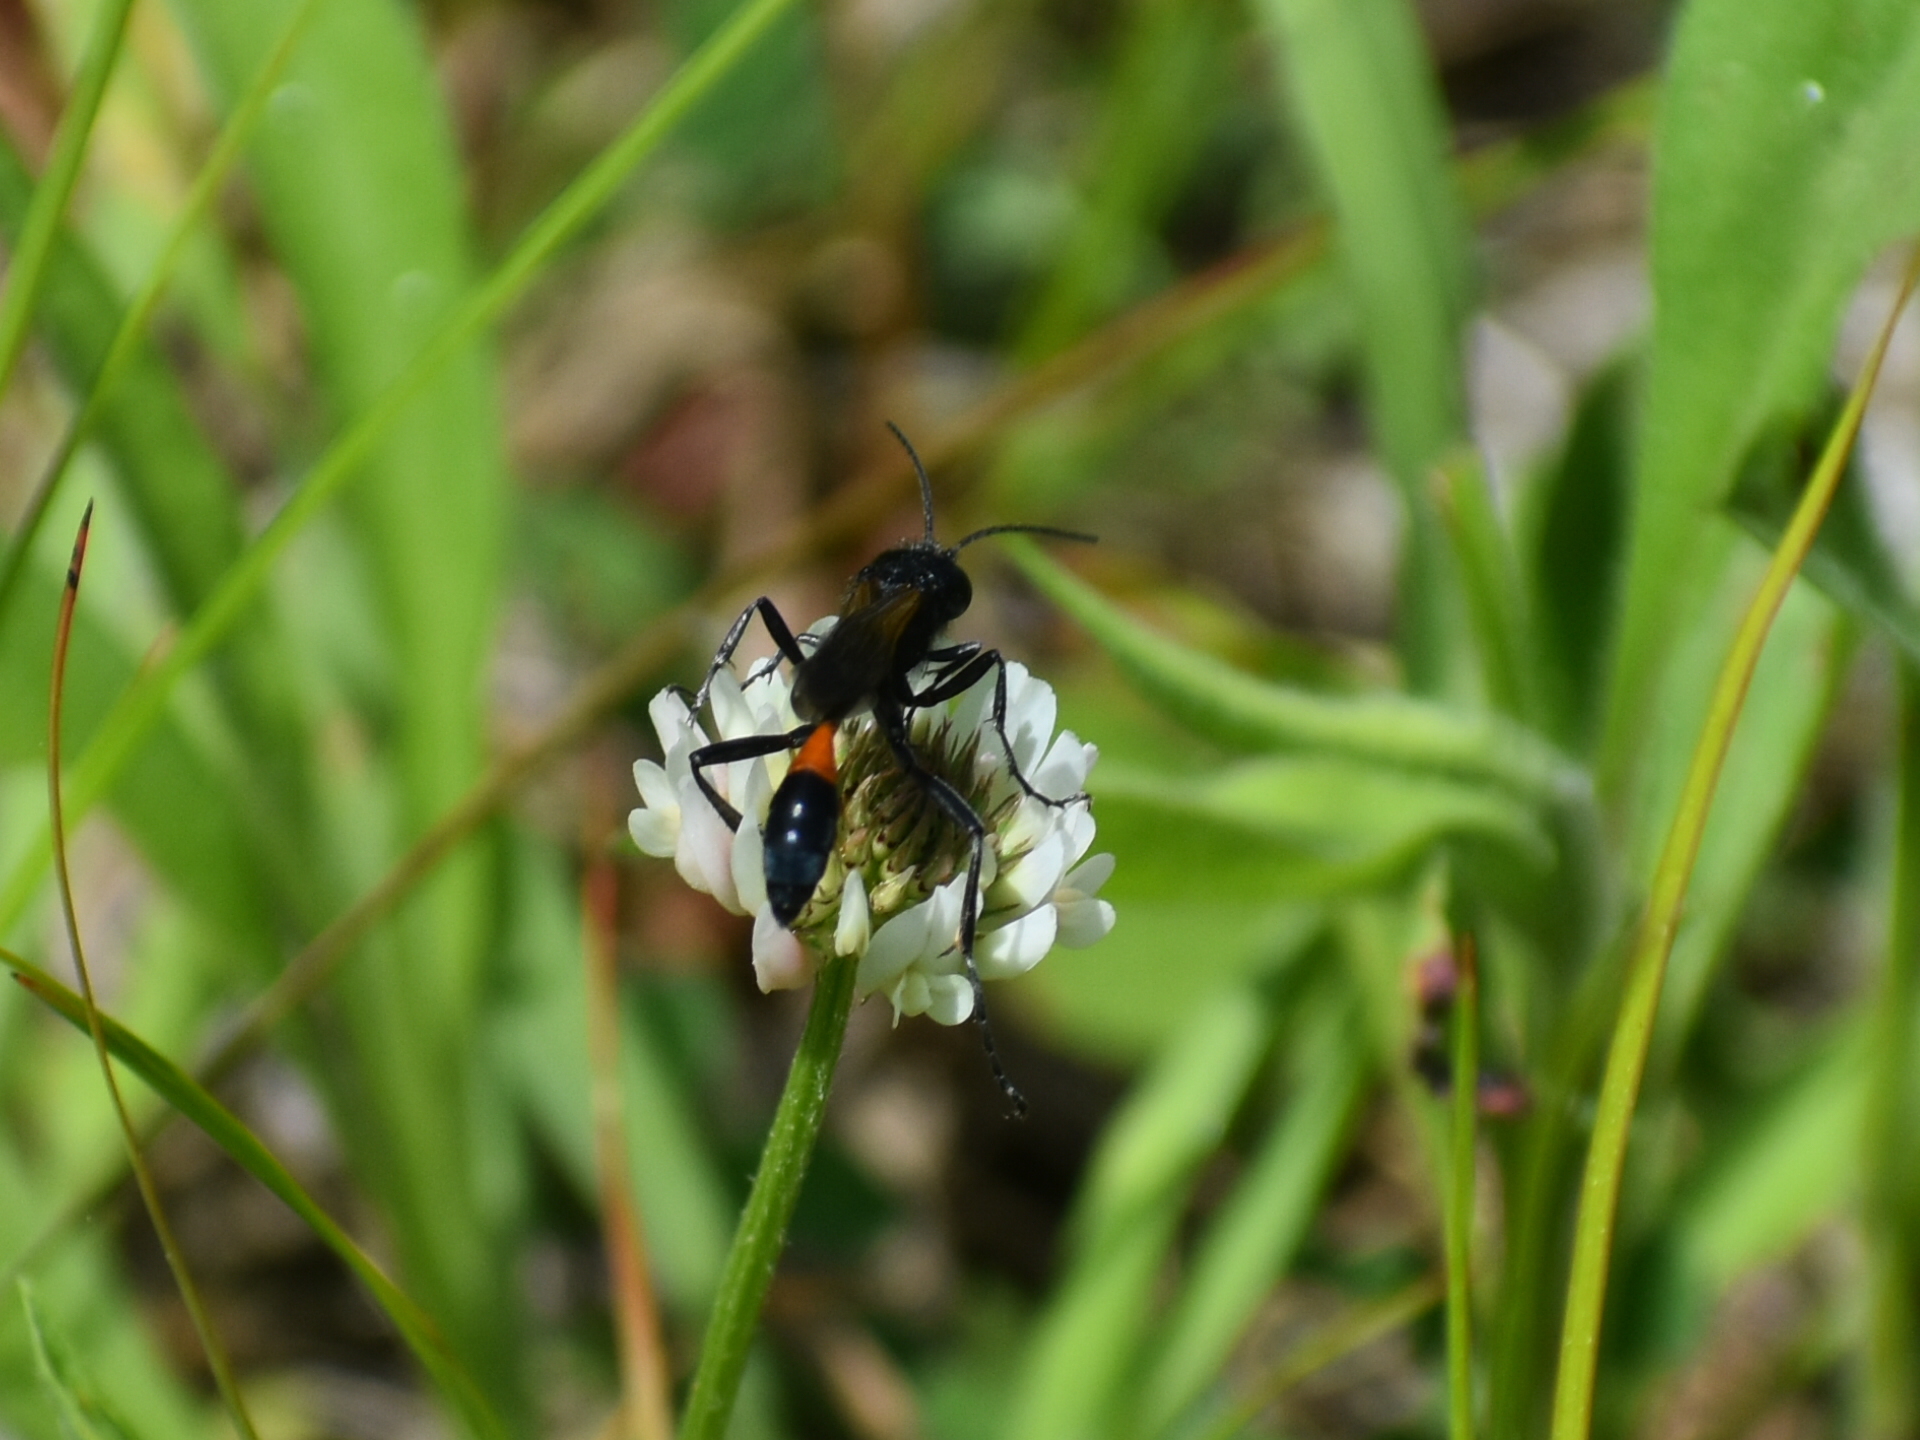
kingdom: Animalia
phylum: Arthropoda
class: Insecta
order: Hymenoptera
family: Sphecidae
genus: Ammophila
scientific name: Ammophila pictipennis
